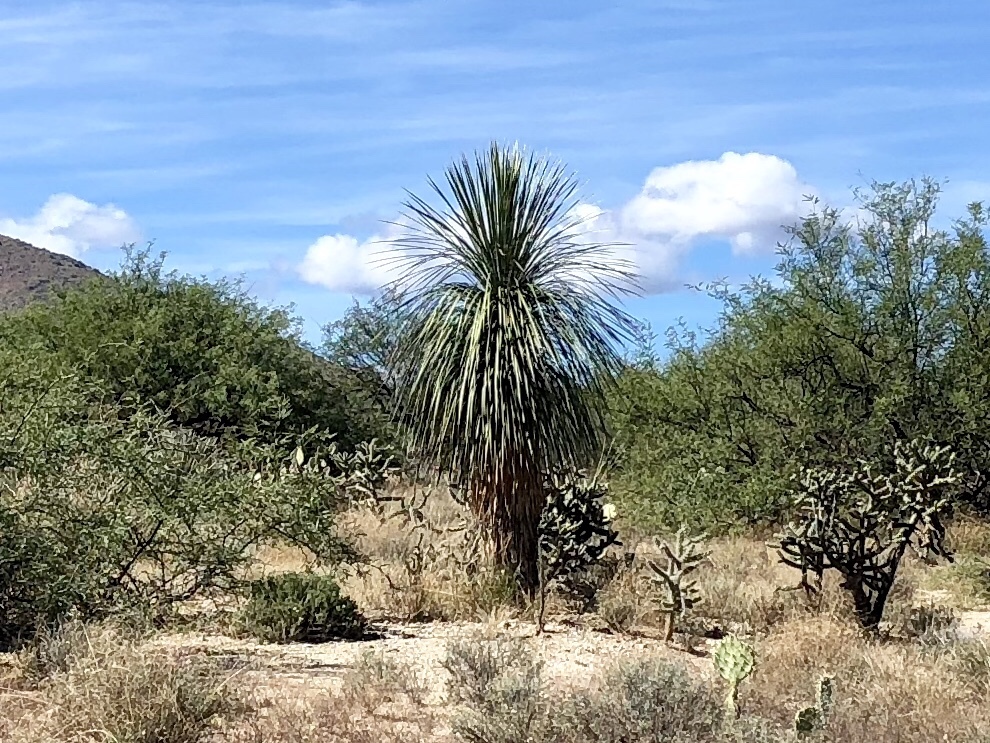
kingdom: Plantae
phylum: Tracheophyta
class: Liliopsida
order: Asparagales
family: Asparagaceae
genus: Yucca
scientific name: Yucca elata
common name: Palmella
